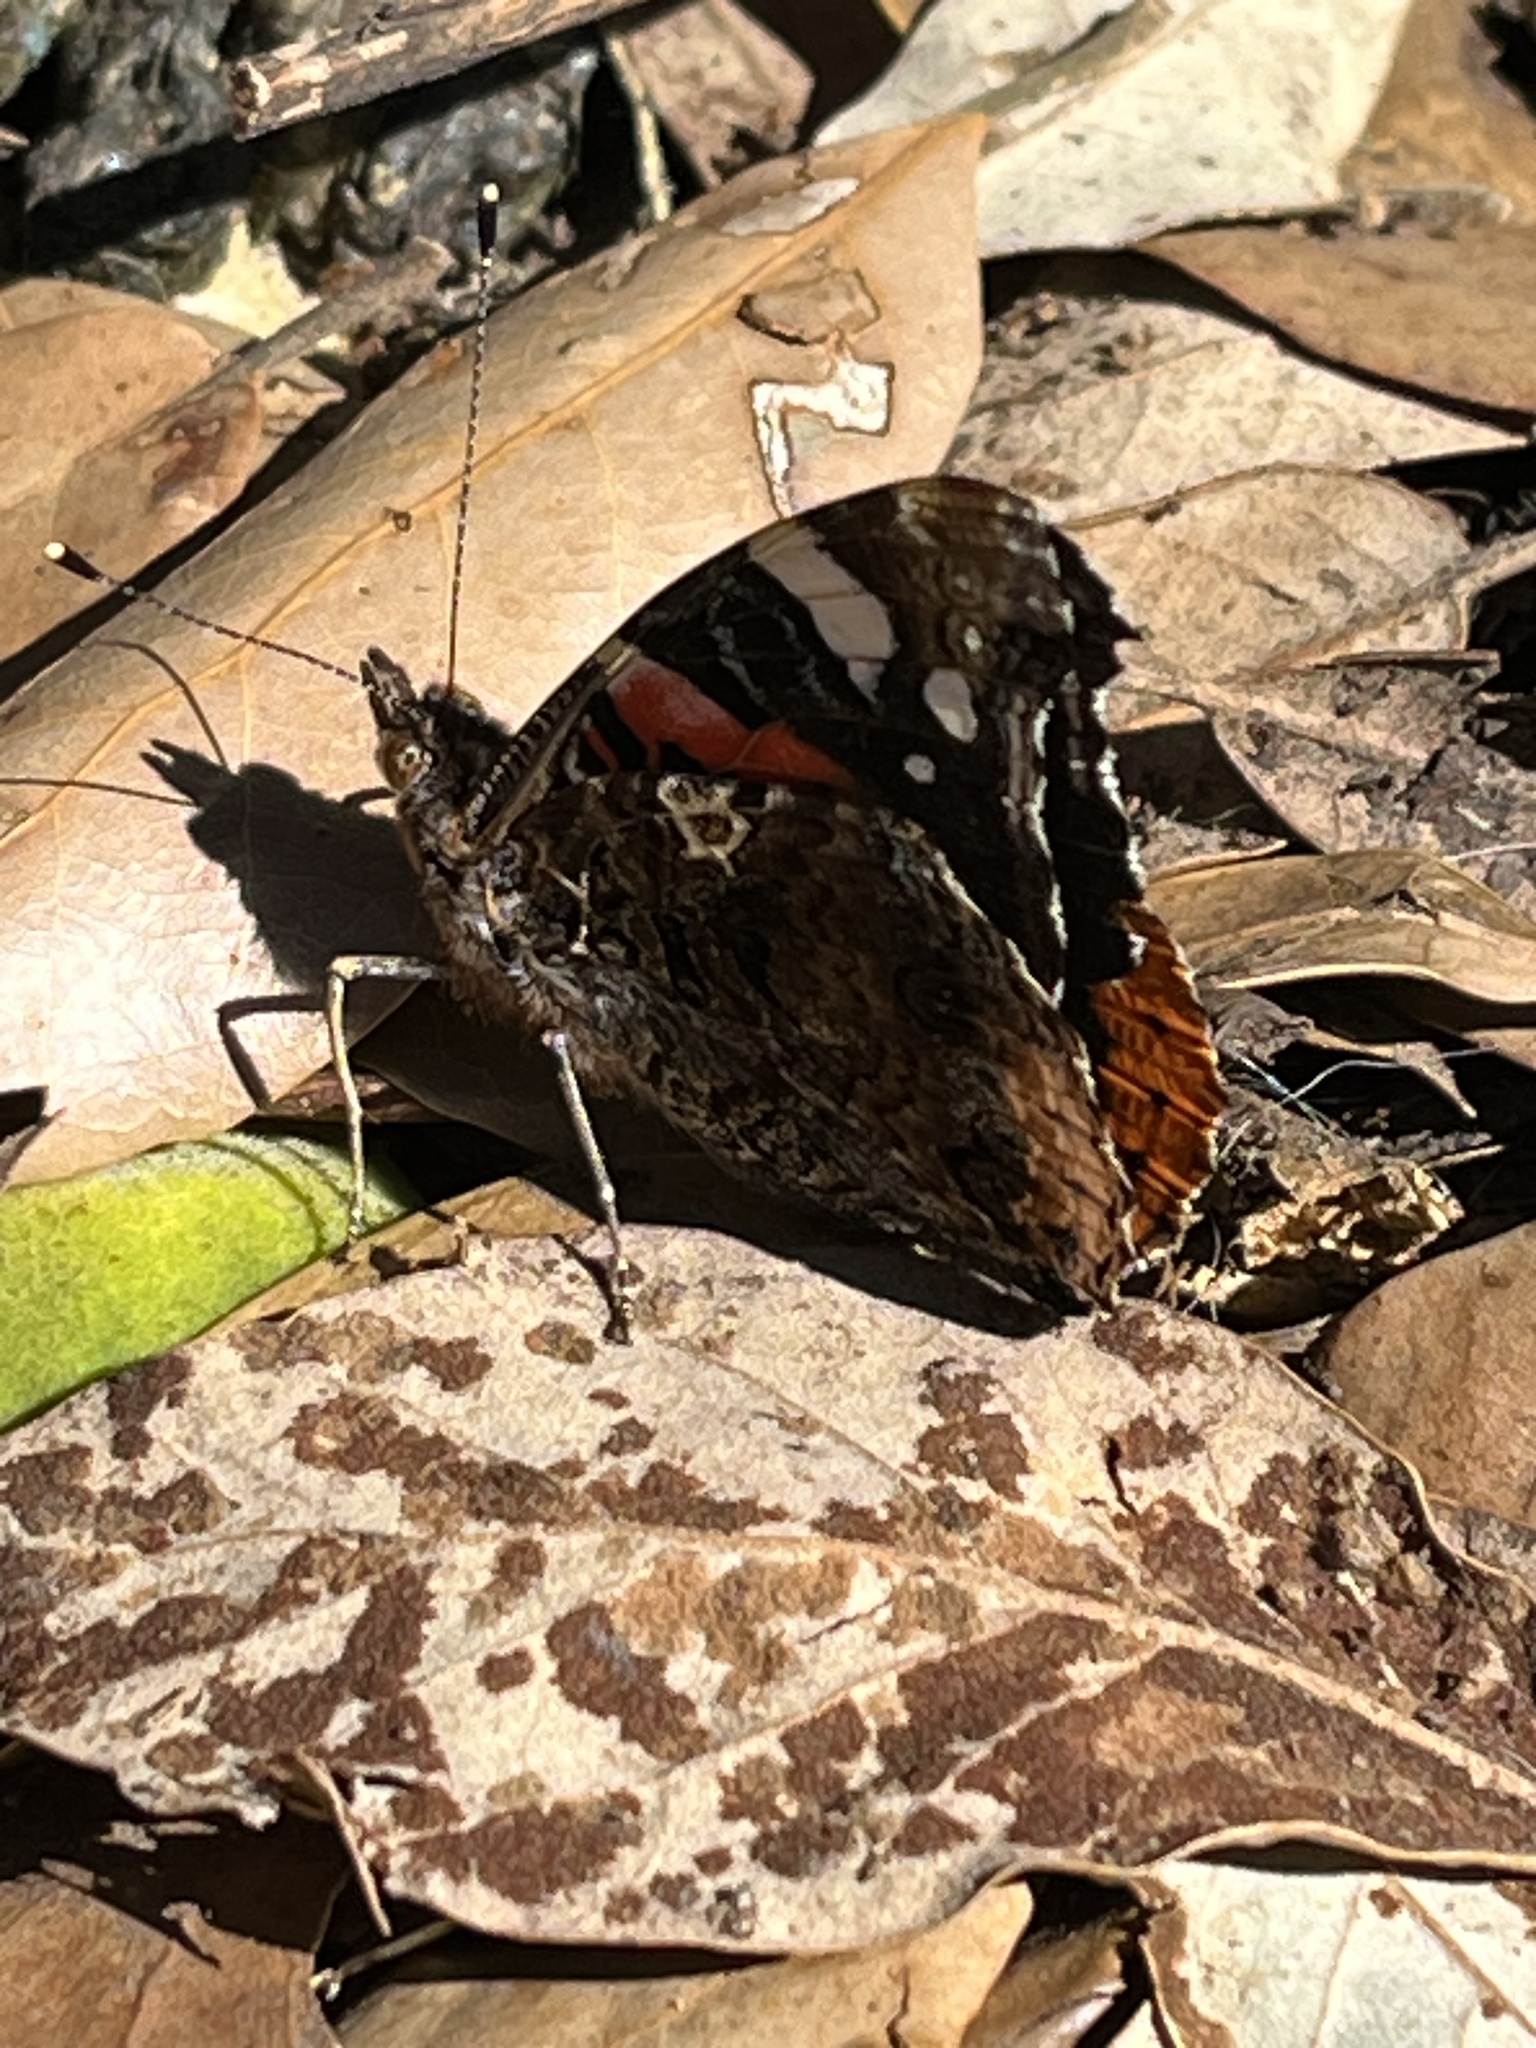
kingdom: Animalia
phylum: Arthropoda
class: Insecta
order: Lepidoptera
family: Nymphalidae
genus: Vanessa
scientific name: Vanessa atalanta
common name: Red admiral
